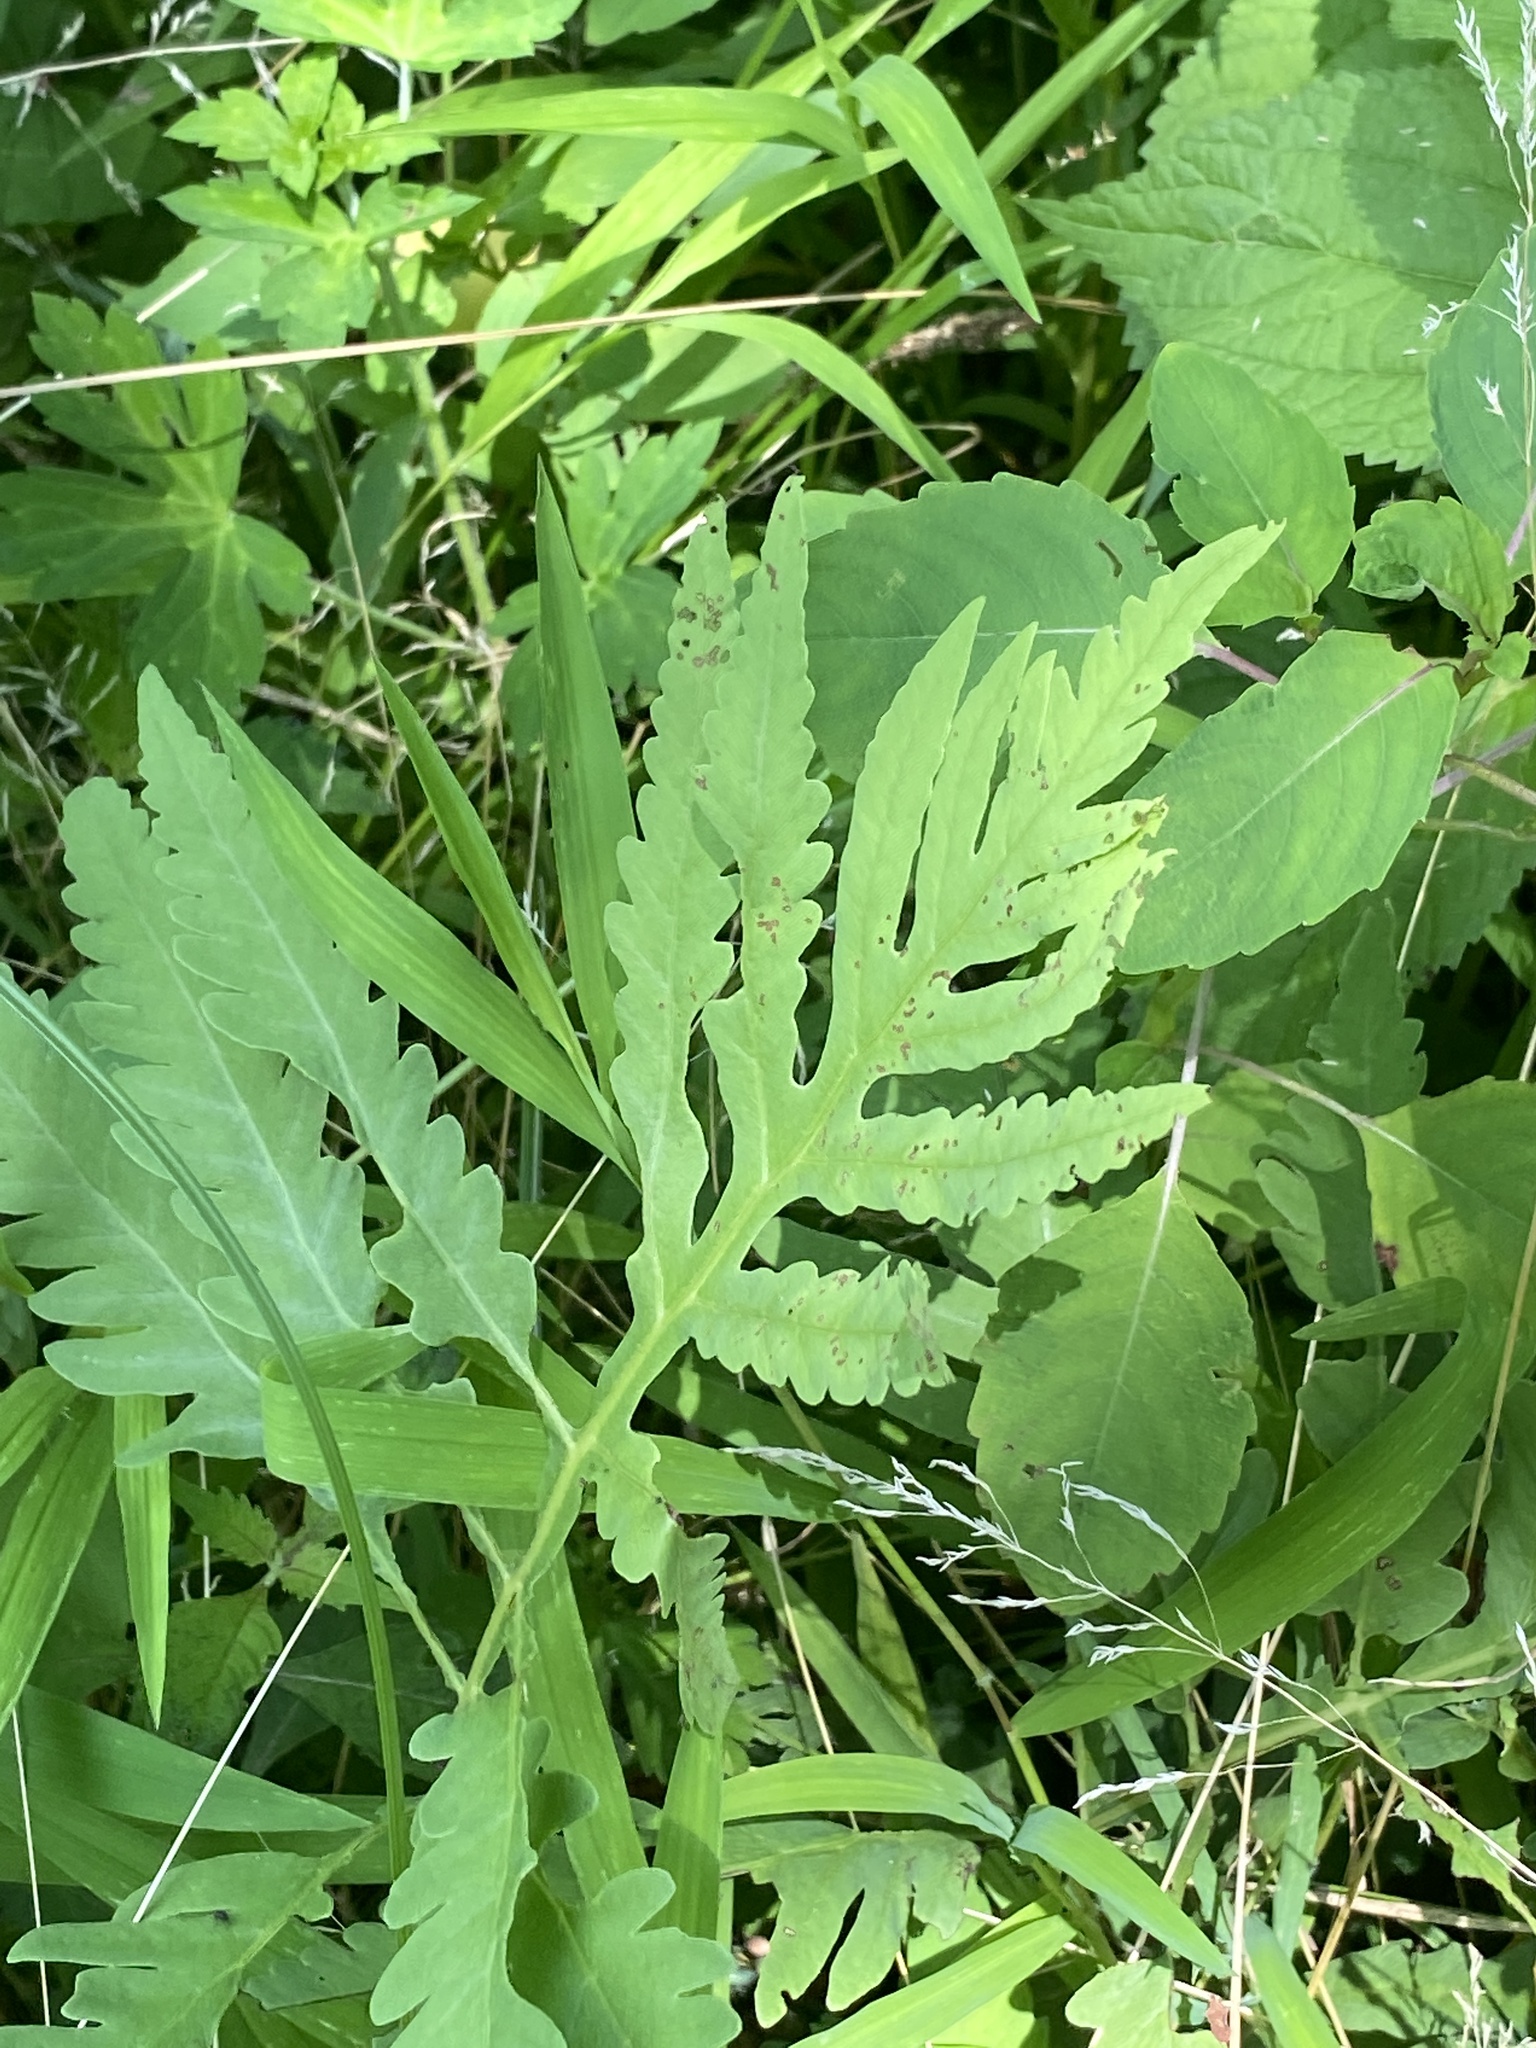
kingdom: Plantae
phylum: Tracheophyta
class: Polypodiopsida
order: Polypodiales
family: Onocleaceae
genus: Onoclea
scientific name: Onoclea sensibilis
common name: Sensitive fern
